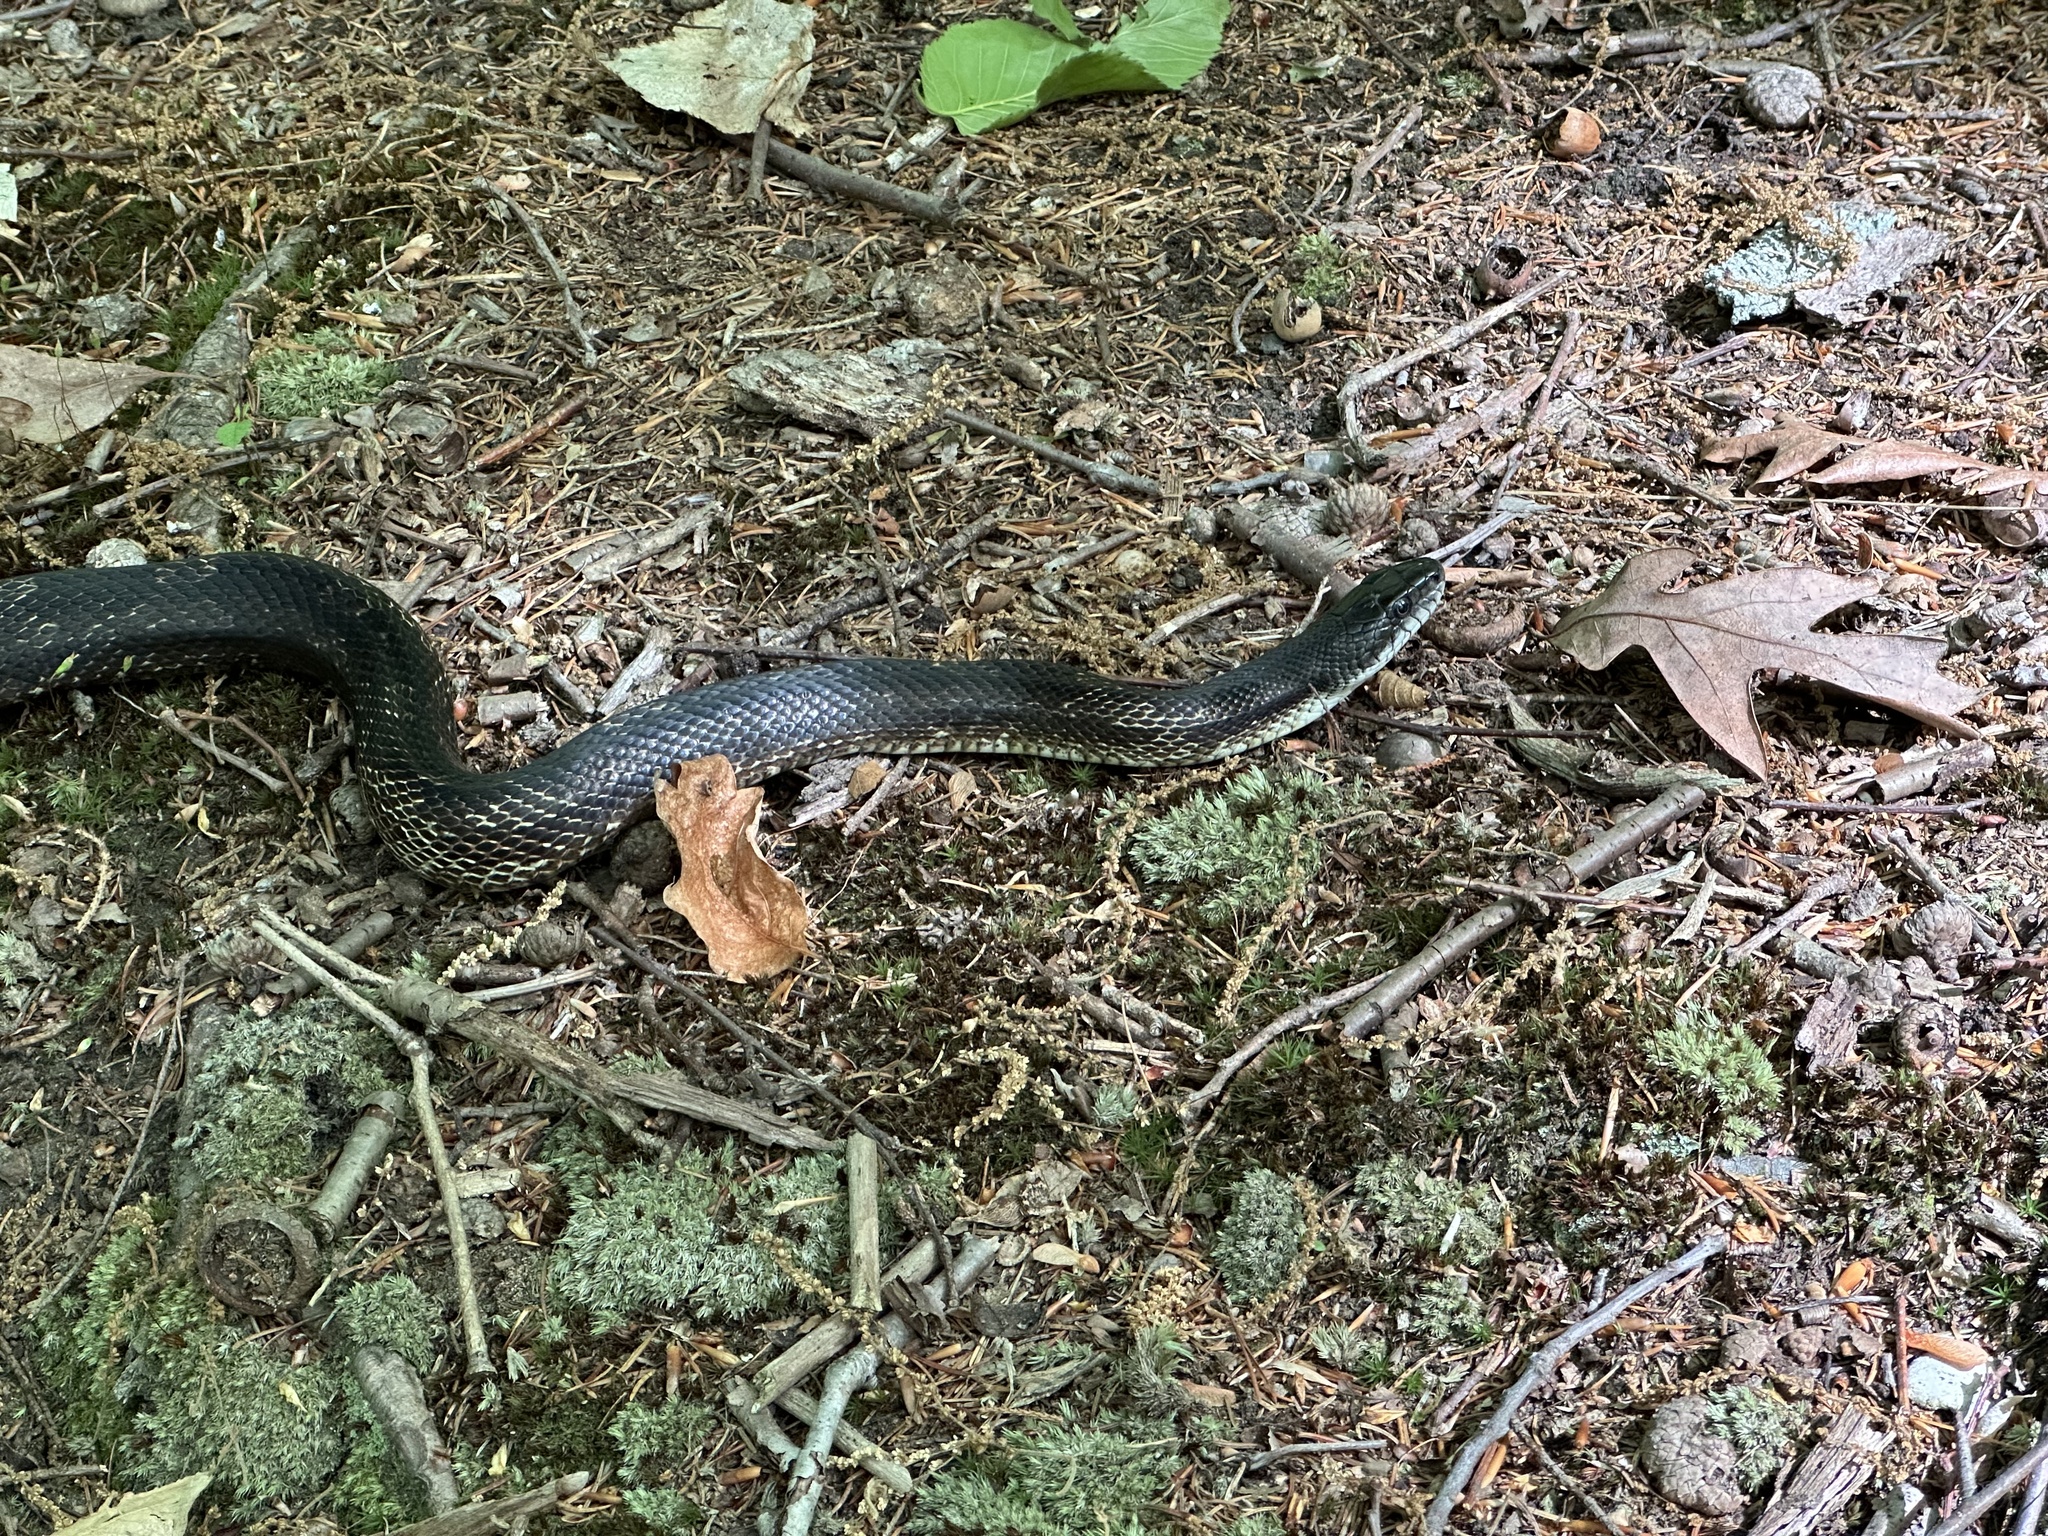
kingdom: Animalia
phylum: Chordata
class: Squamata
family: Colubridae
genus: Pantherophis
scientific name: Pantherophis spiloides
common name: Gray rat snake
